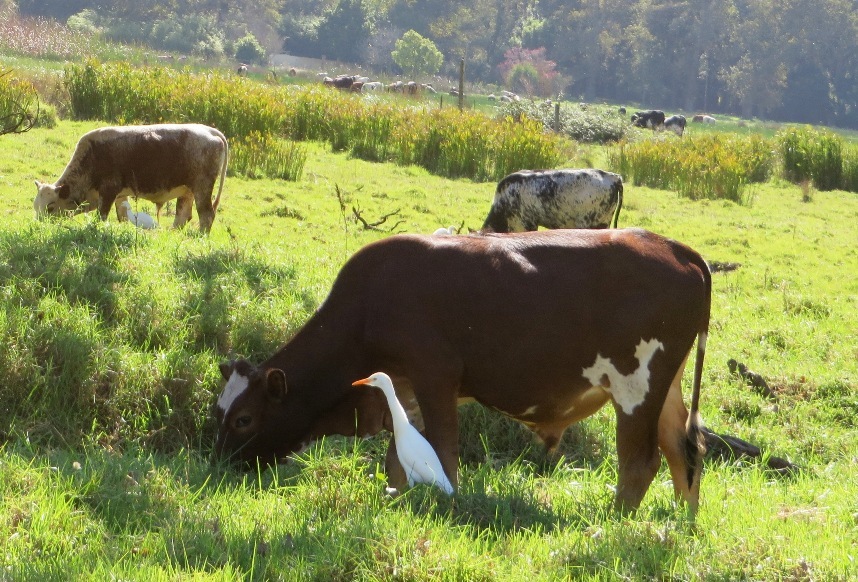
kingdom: Animalia
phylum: Chordata
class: Aves
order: Pelecaniformes
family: Ardeidae
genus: Bubulcus
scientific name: Bubulcus ibis
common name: Cattle egret
